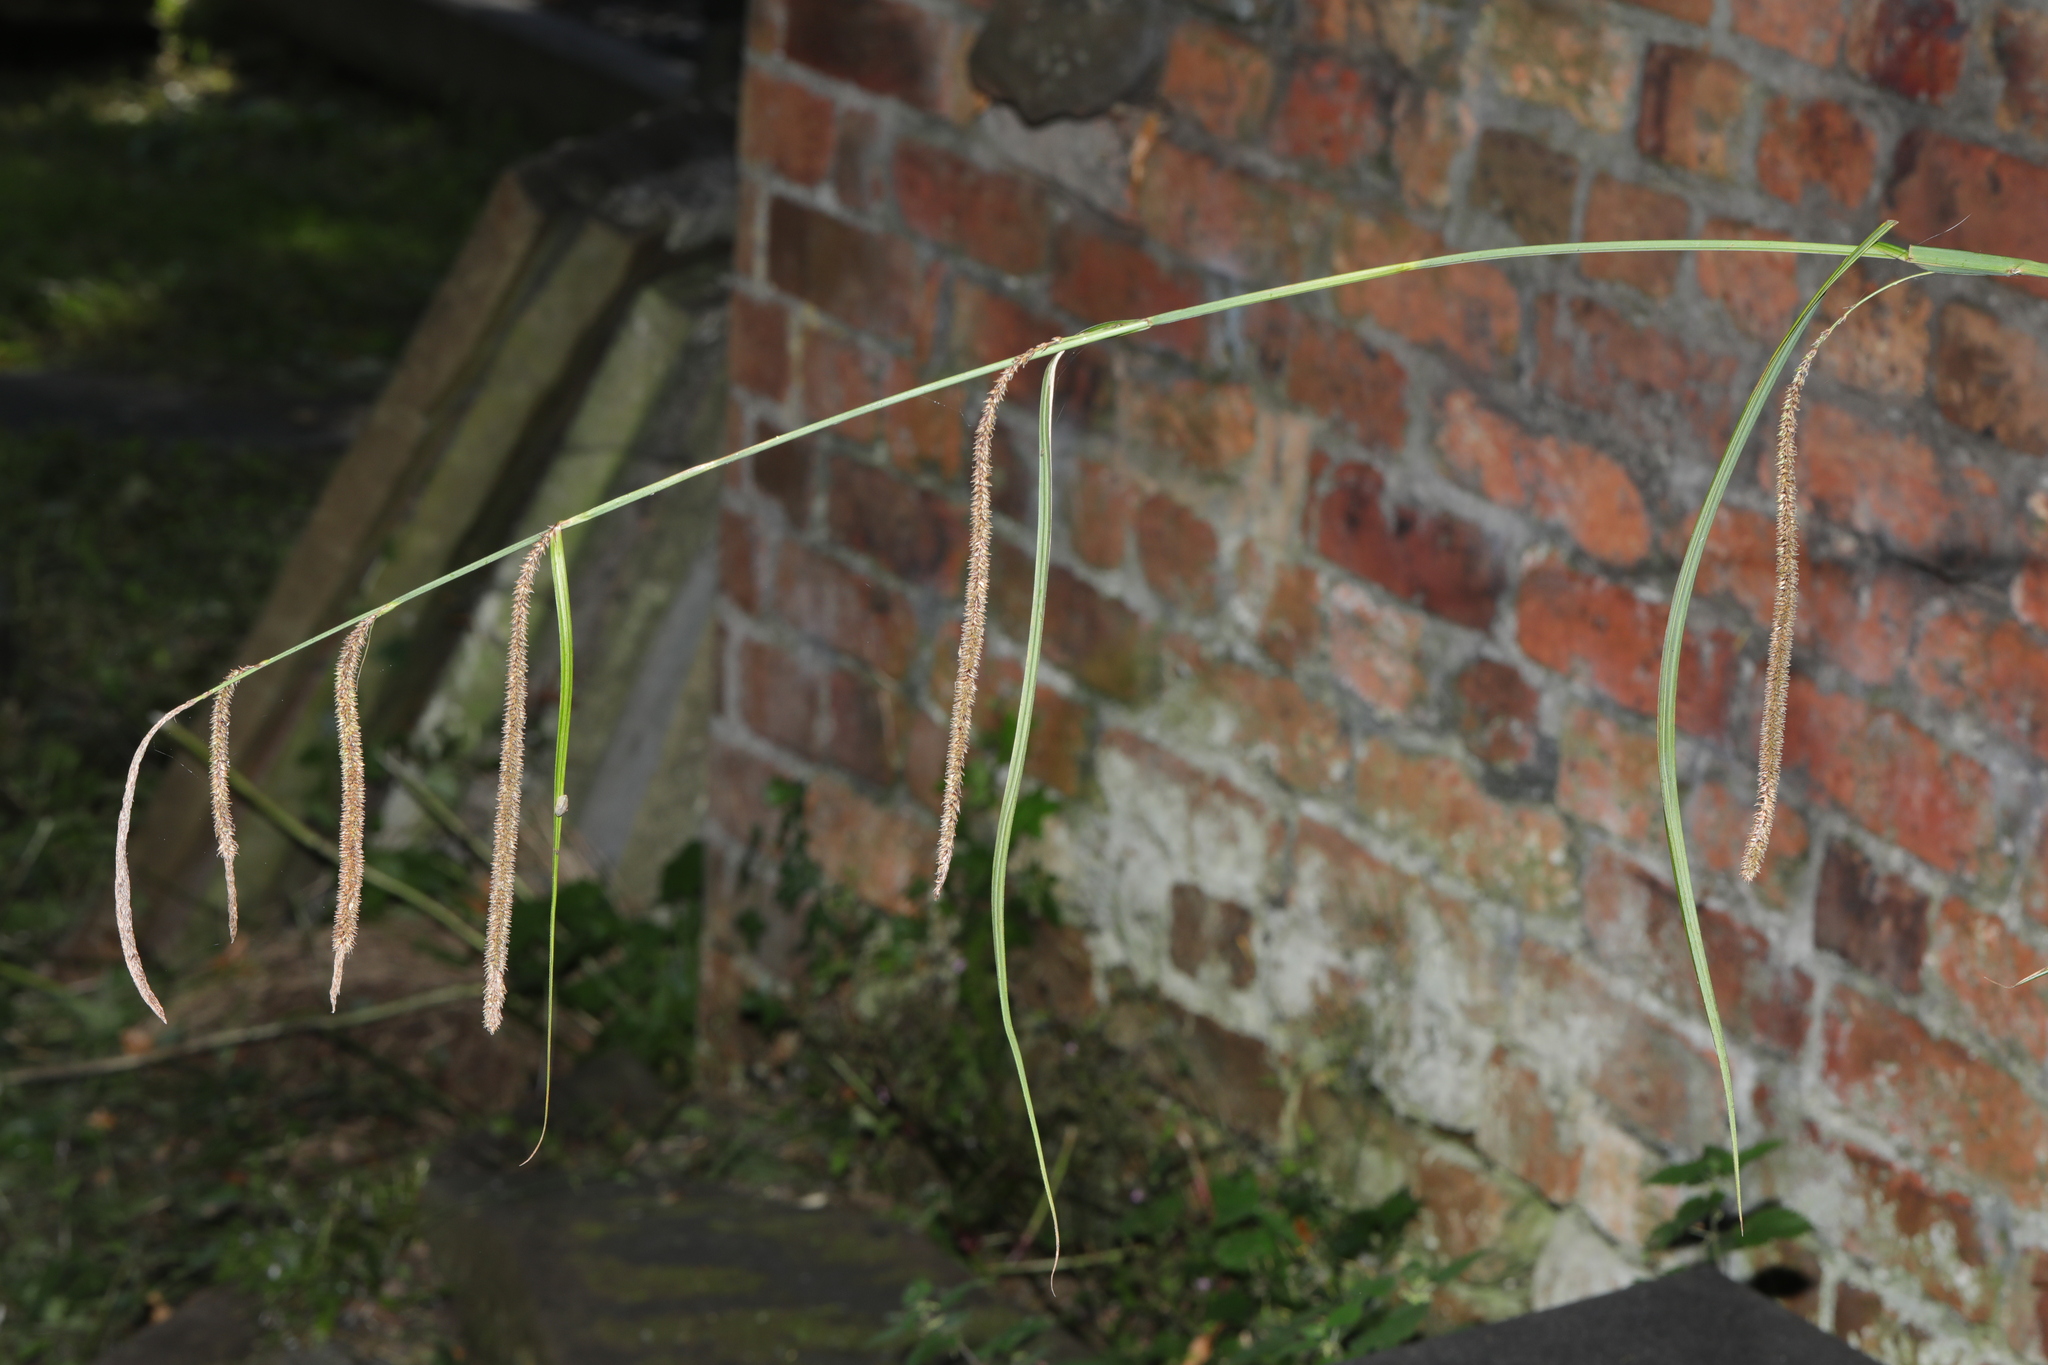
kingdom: Plantae
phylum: Tracheophyta
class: Liliopsida
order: Poales
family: Cyperaceae
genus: Carex
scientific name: Carex pendula
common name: Pendulous sedge
